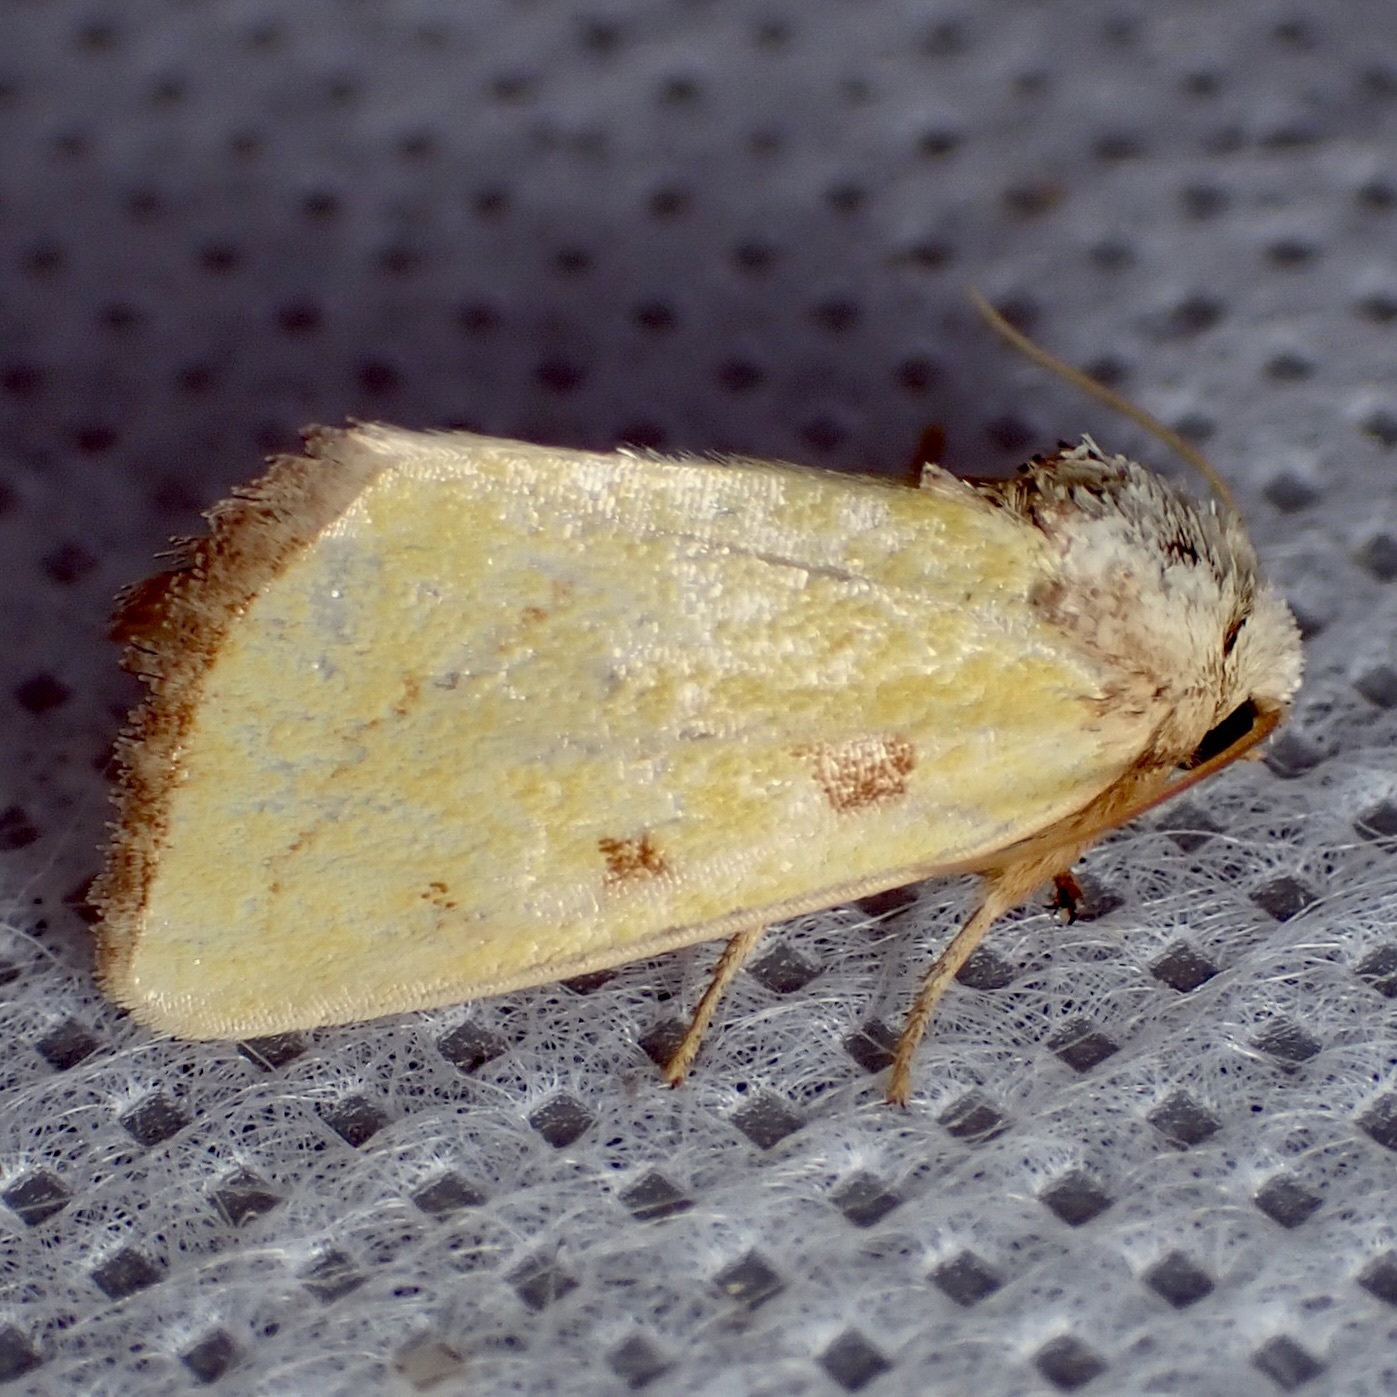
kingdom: Animalia
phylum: Arthropoda
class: Insecta
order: Lepidoptera
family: Noctuidae
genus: Nocloa
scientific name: Nocloa aliaga
